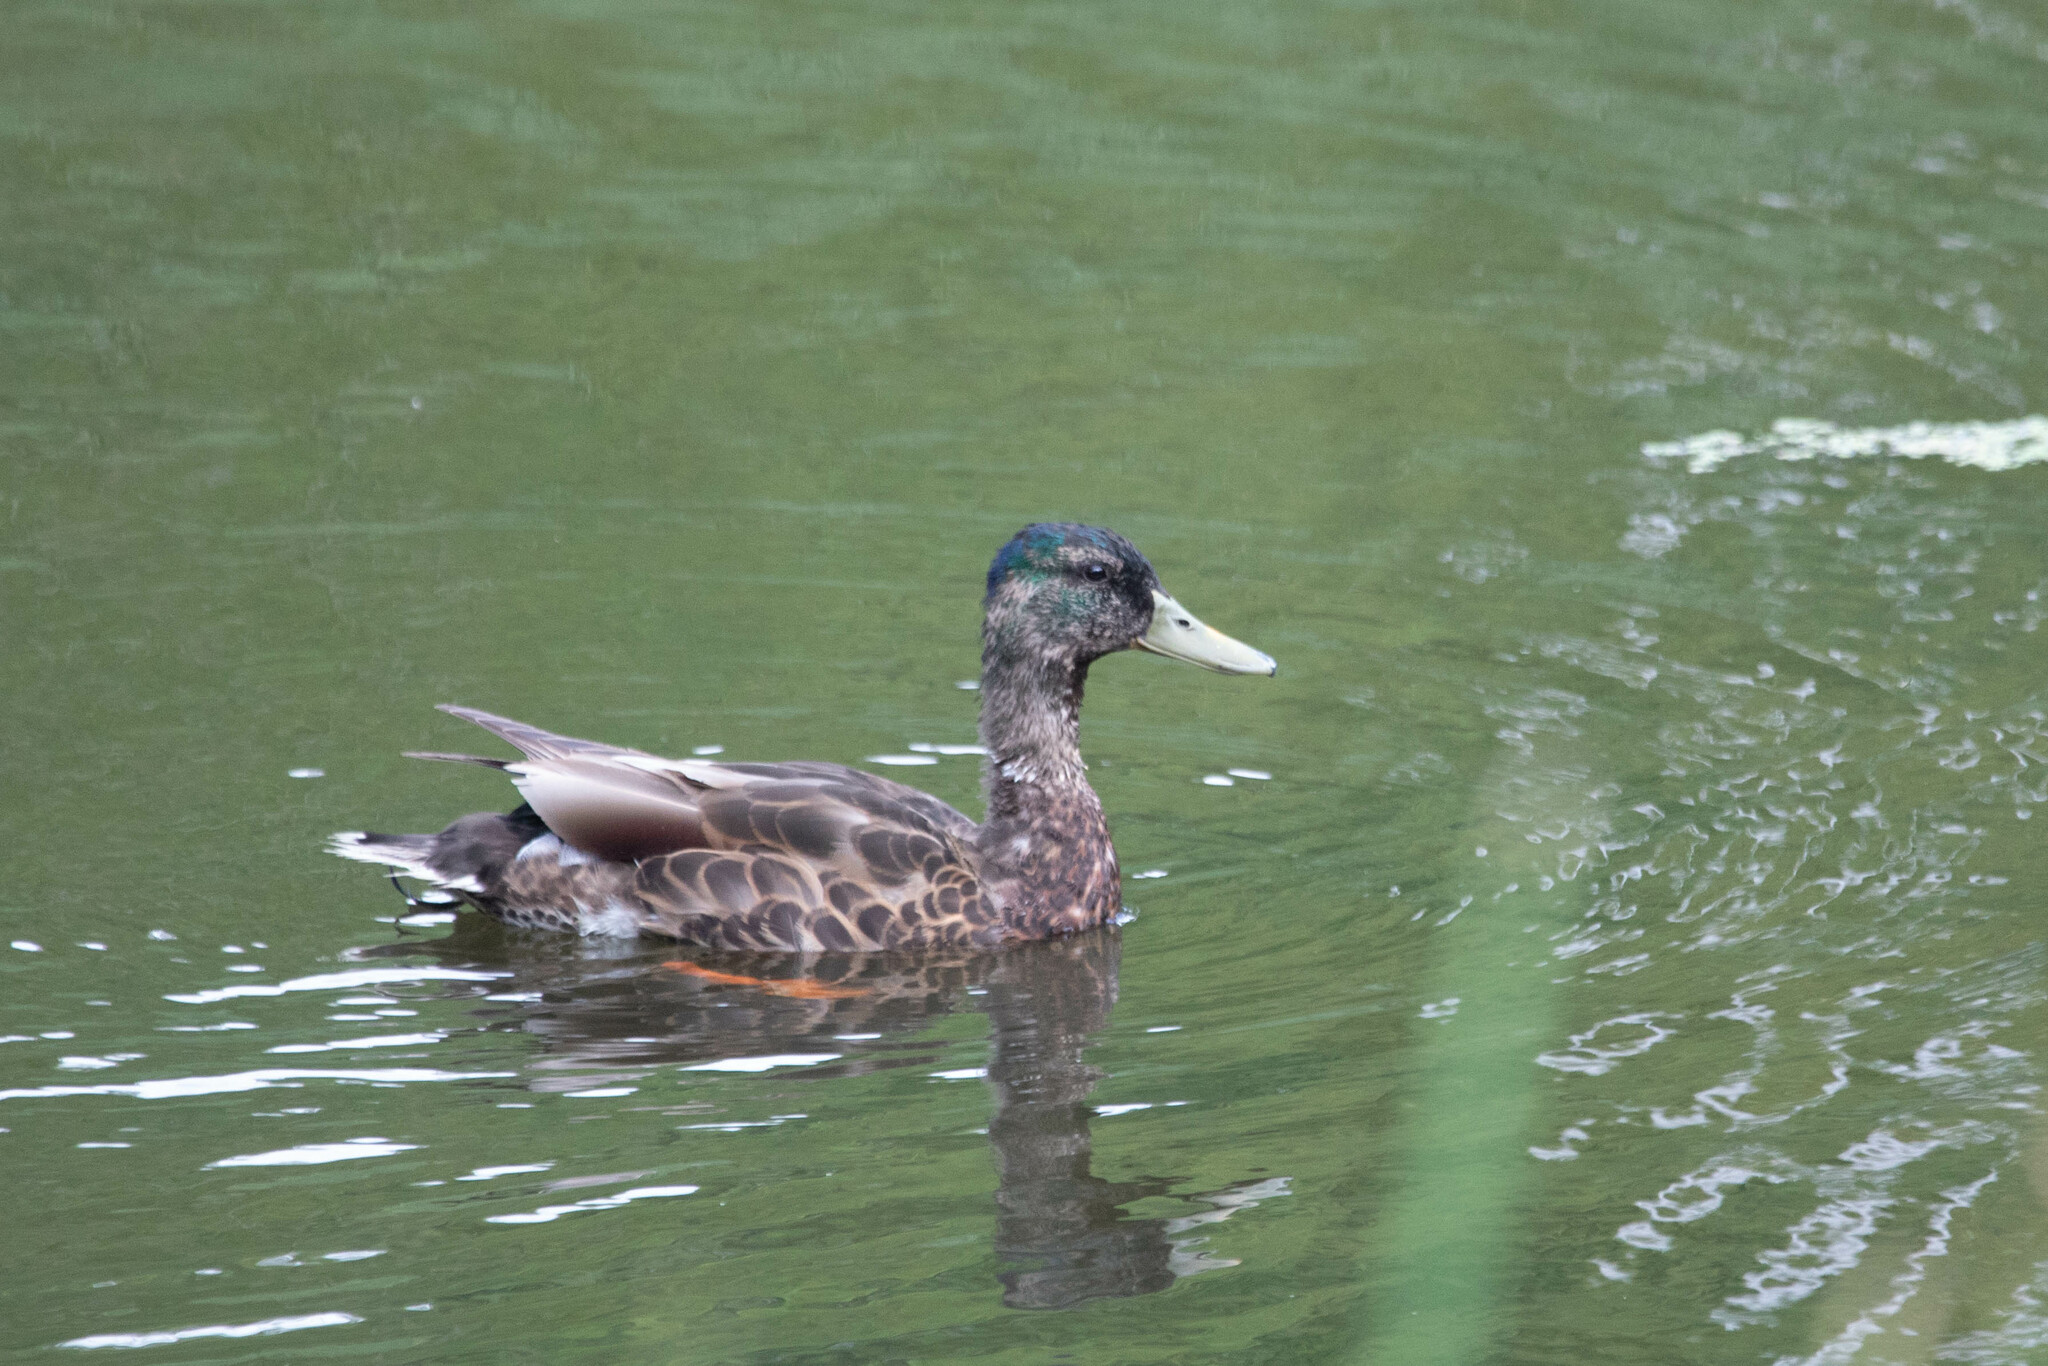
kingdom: Animalia
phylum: Chordata
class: Aves
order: Anseriformes
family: Anatidae
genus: Anas
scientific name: Anas platyrhynchos
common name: Mallard
